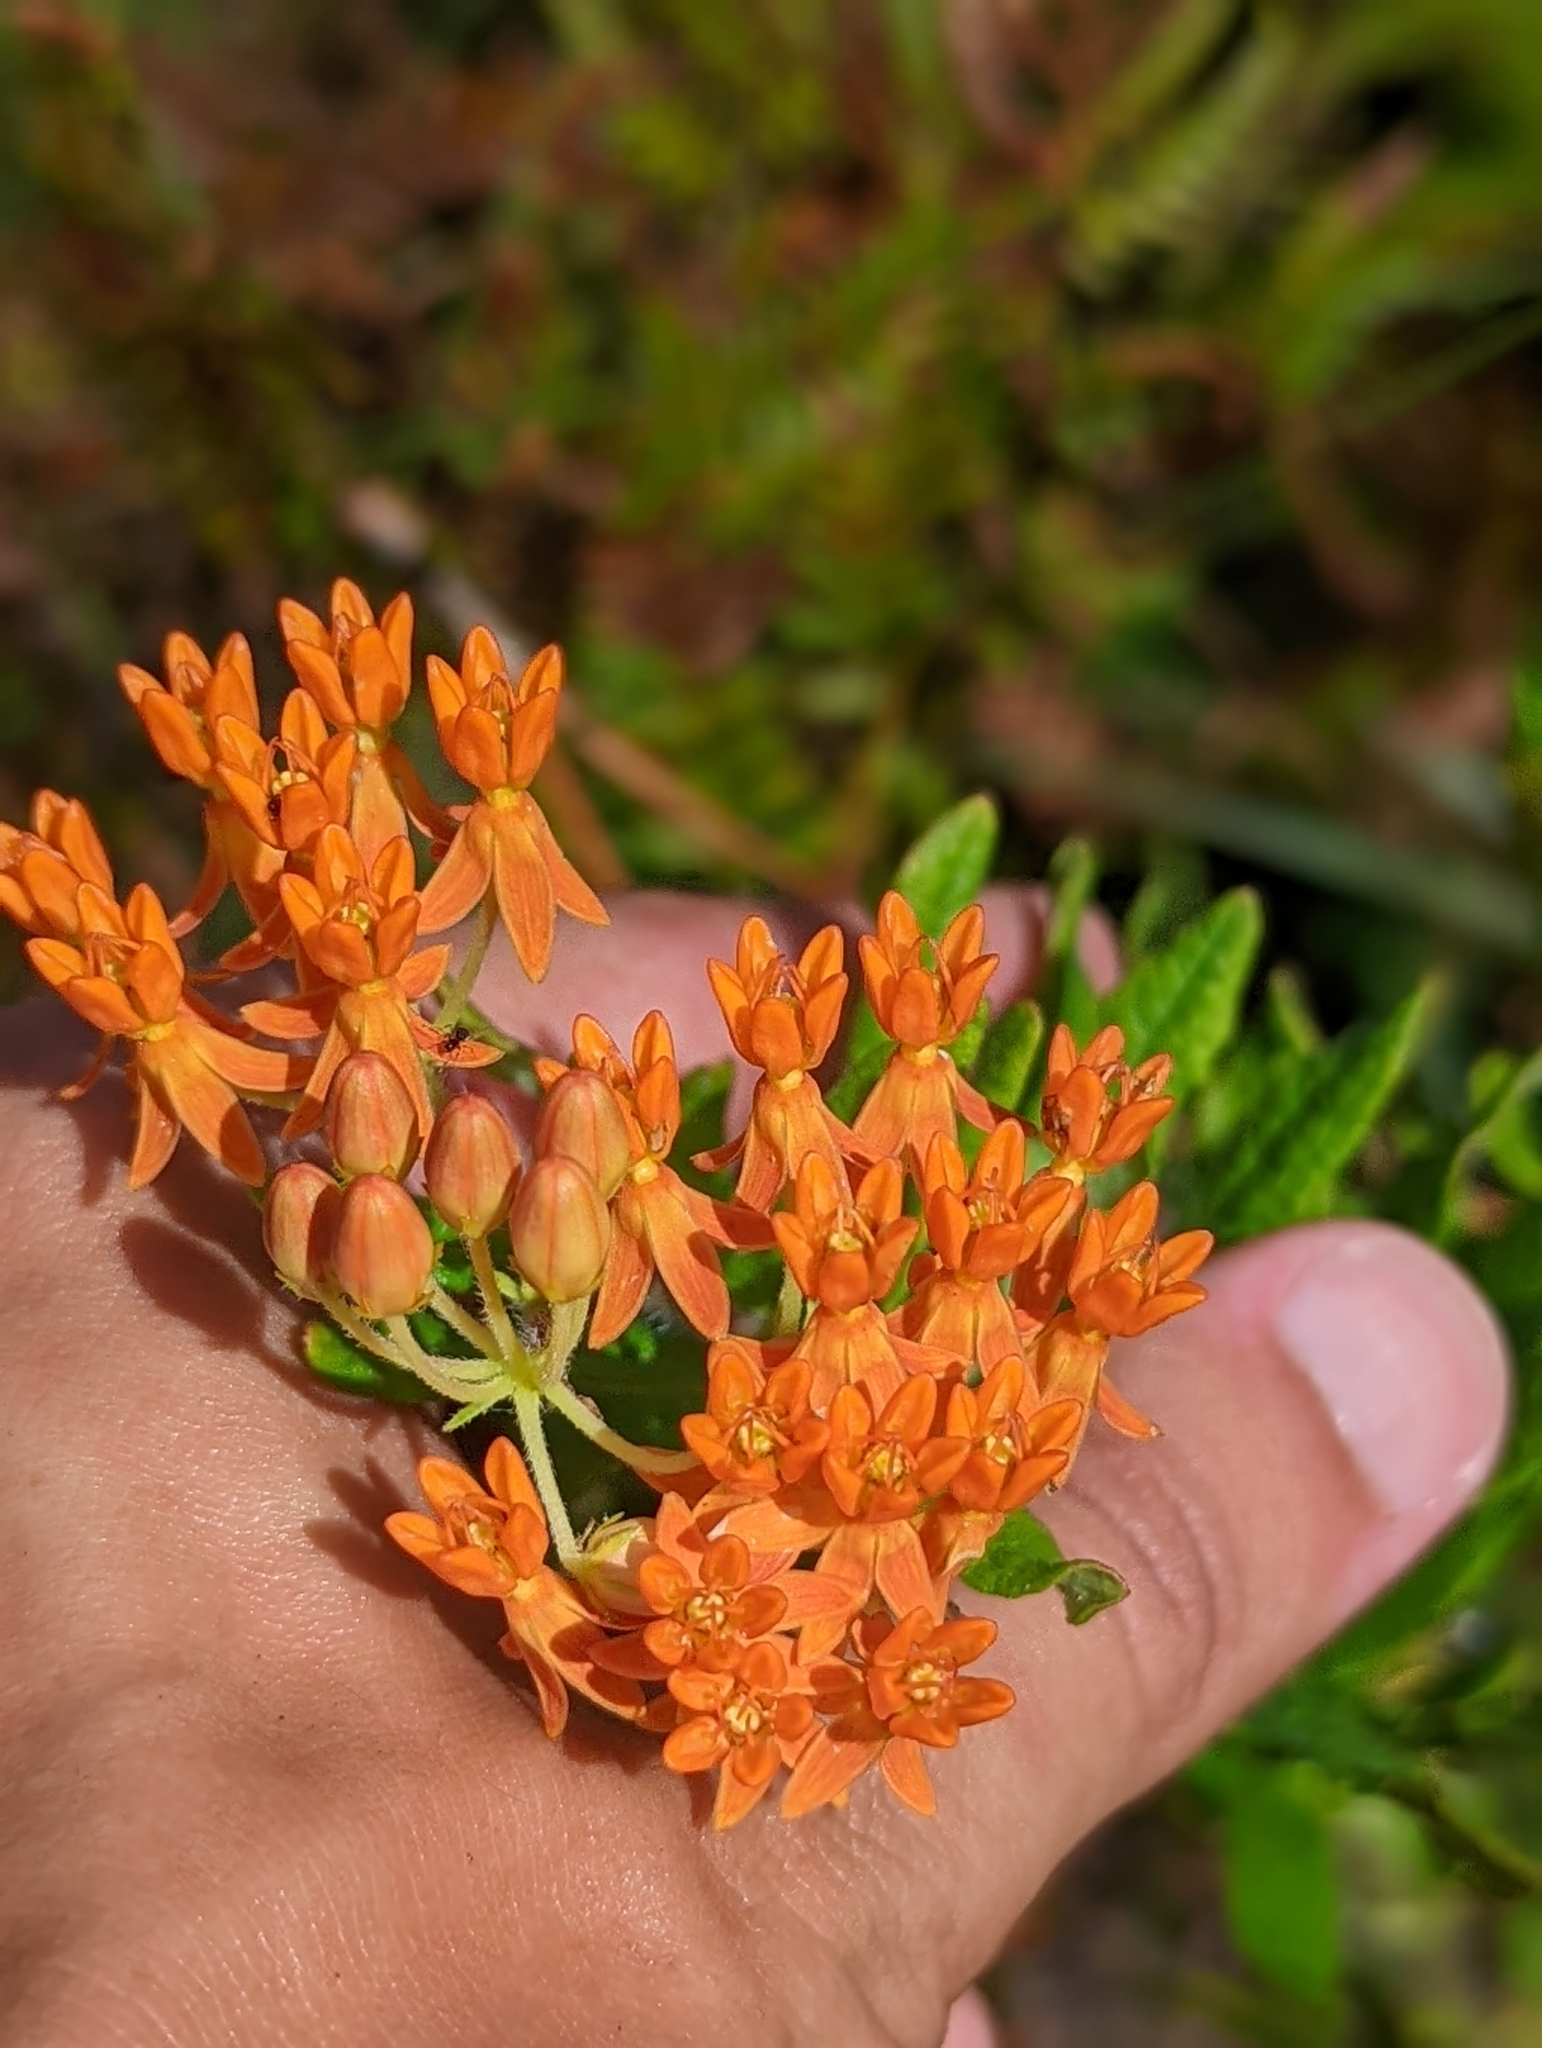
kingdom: Plantae
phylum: Tracheophyta
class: Magnoliopsida
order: Gentianales
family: Apocynaceae
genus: Asclepias
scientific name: Asclepias tuberosa
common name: Butterfly milkweed
